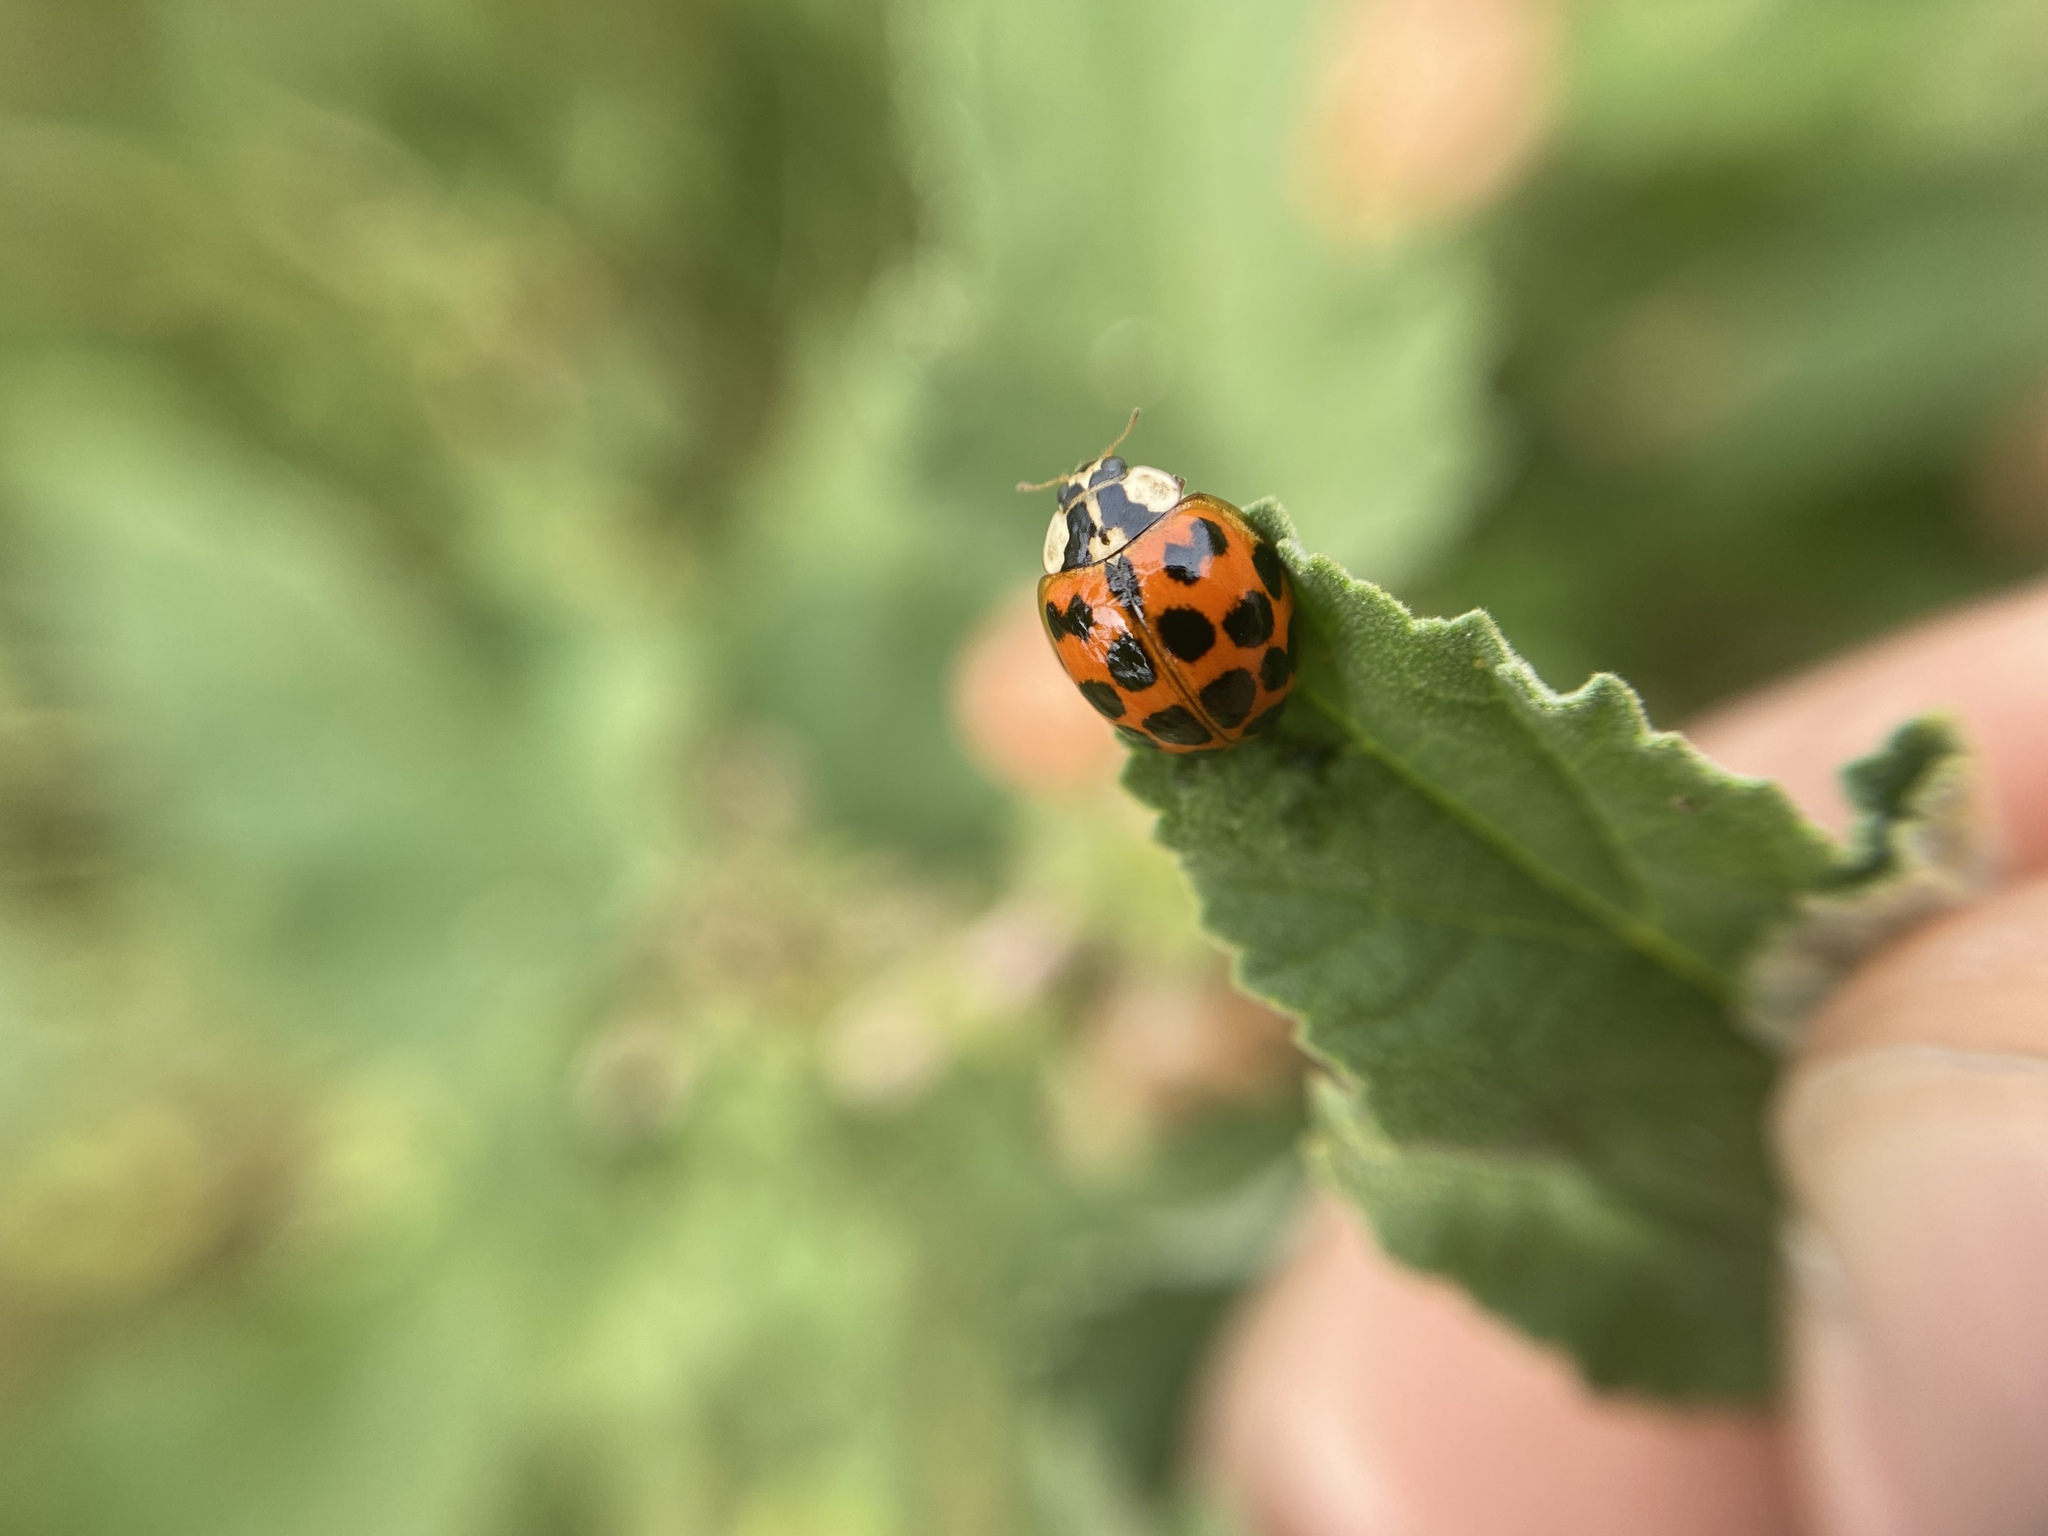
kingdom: Animalia
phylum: Arthropoda
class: Insecta
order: Coleoptera
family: Coccinellidae
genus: Harmonia
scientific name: Harmonia axyridis
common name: Harlequin ladybird
